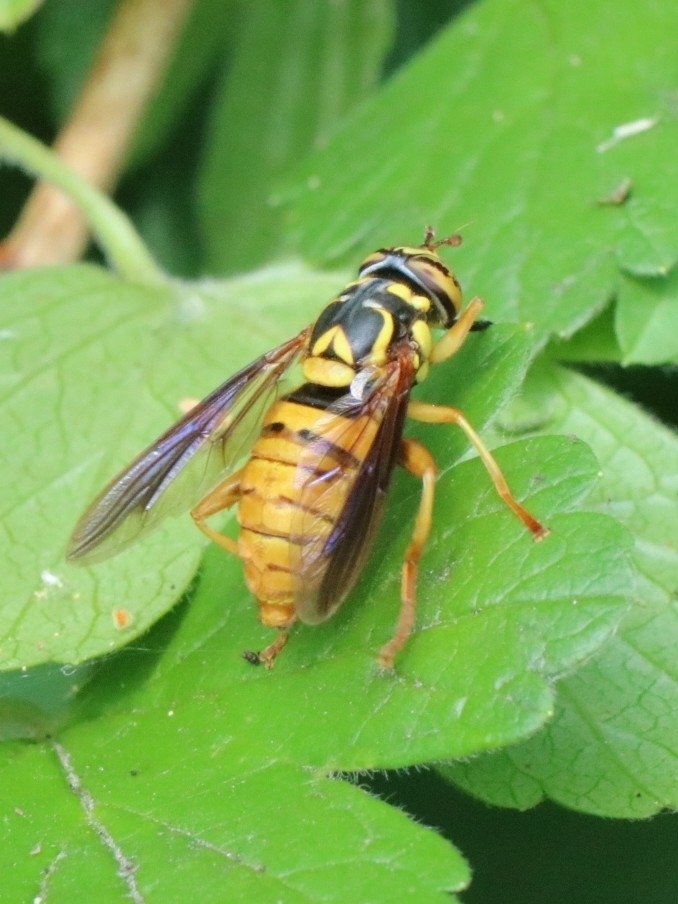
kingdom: Animalia
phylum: Arthropoda
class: Insecta
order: Diptera
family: Syrphidae
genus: Spilomyia
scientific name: Spilomyia alcimus
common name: Broad-banded hornet fly
